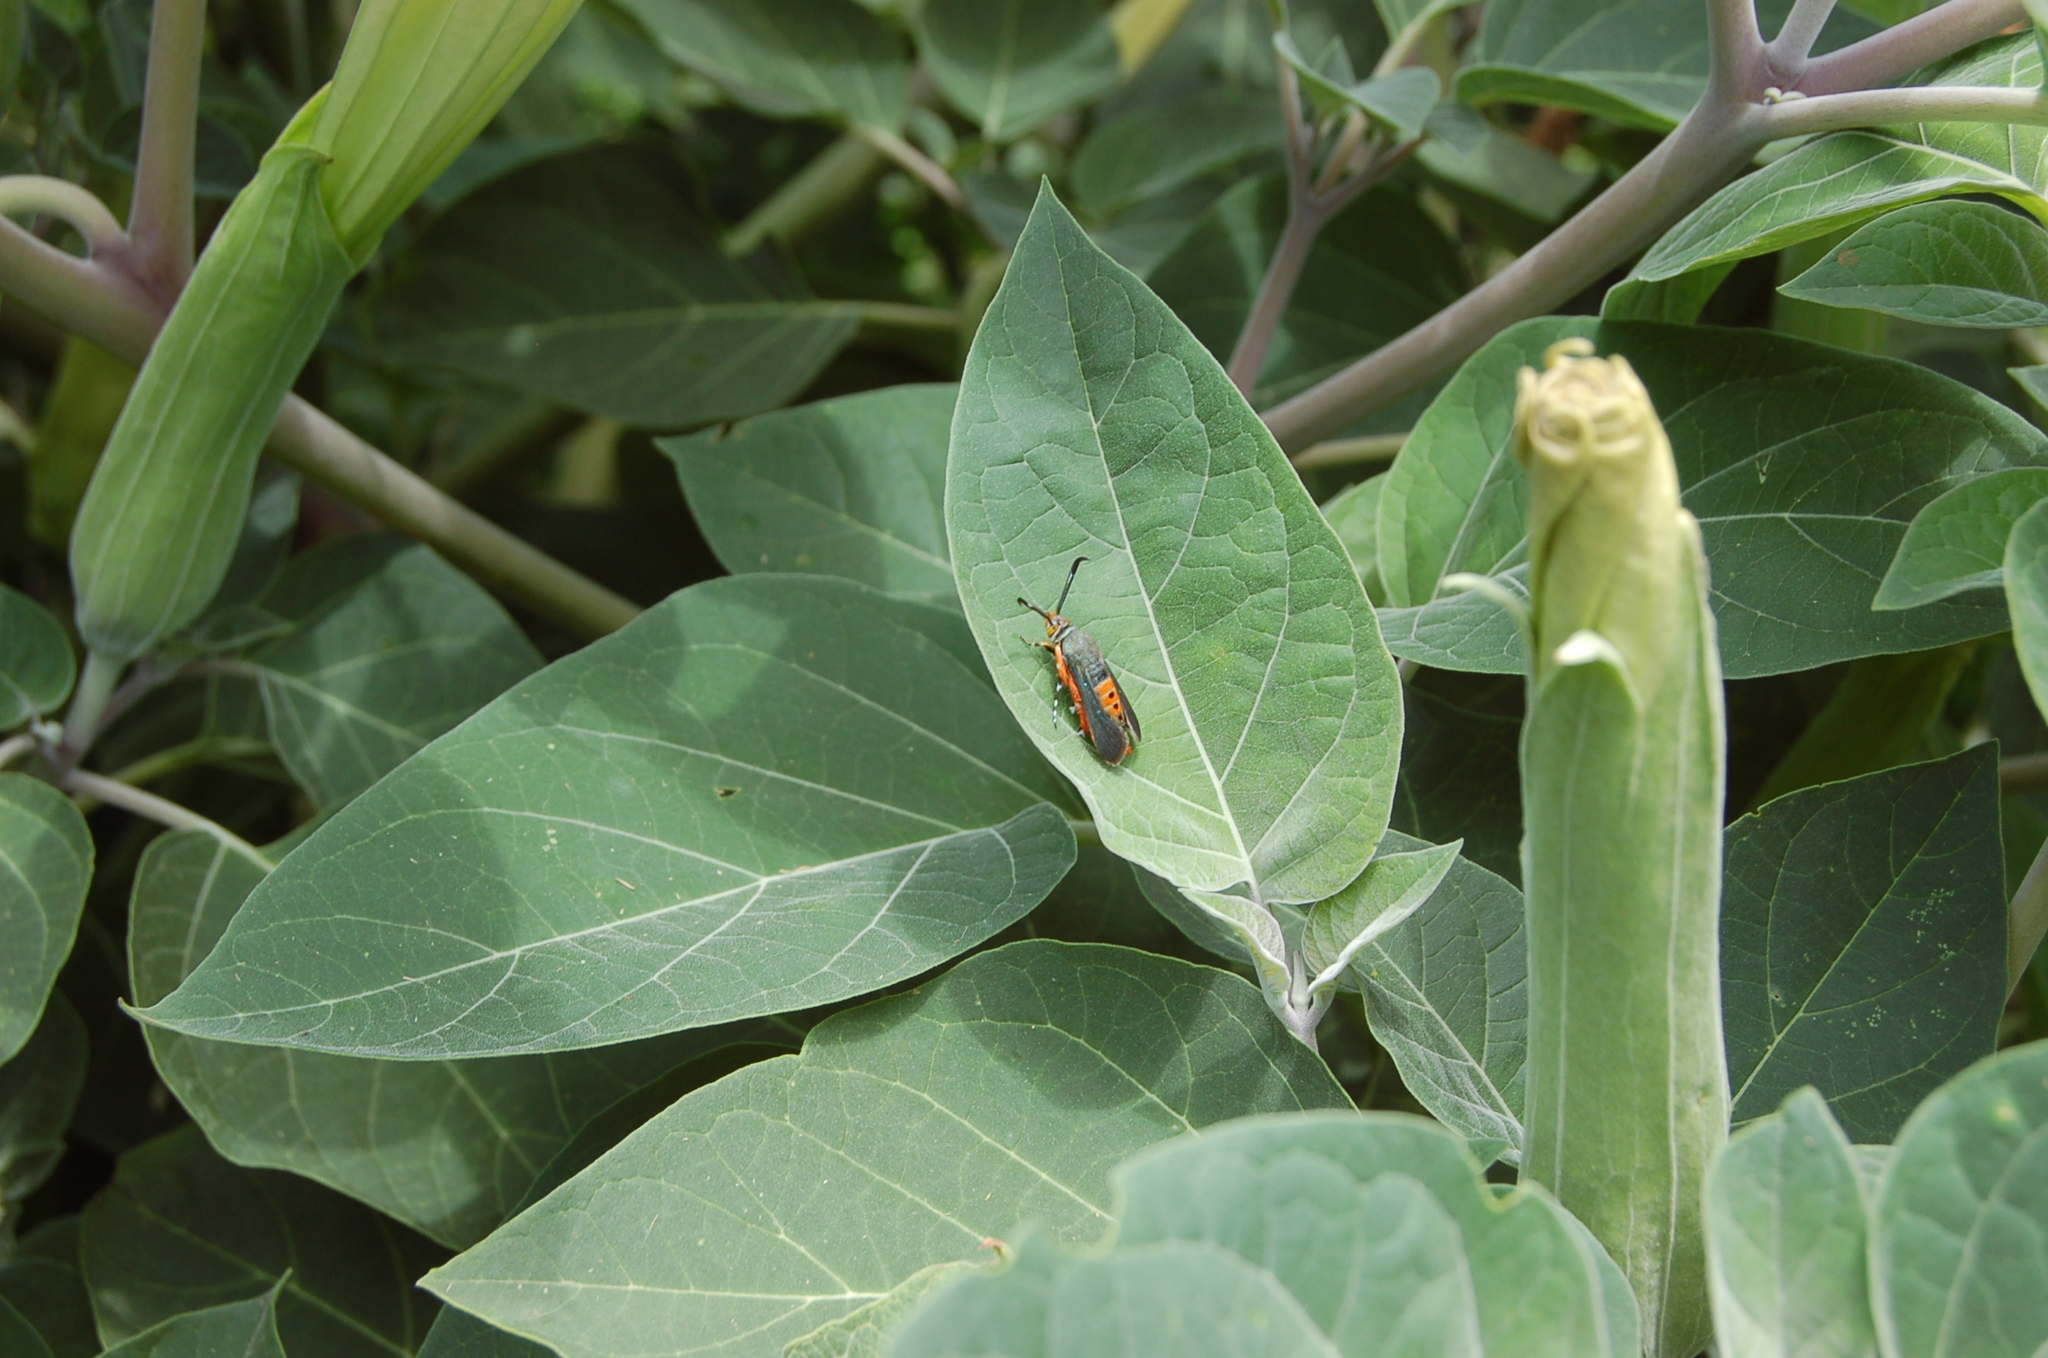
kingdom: Animalia
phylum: Arthropoda
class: Insecta
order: Lepidoptera
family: Sesiidae
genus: Eichlinia
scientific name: Eichlinia cucurbitae
